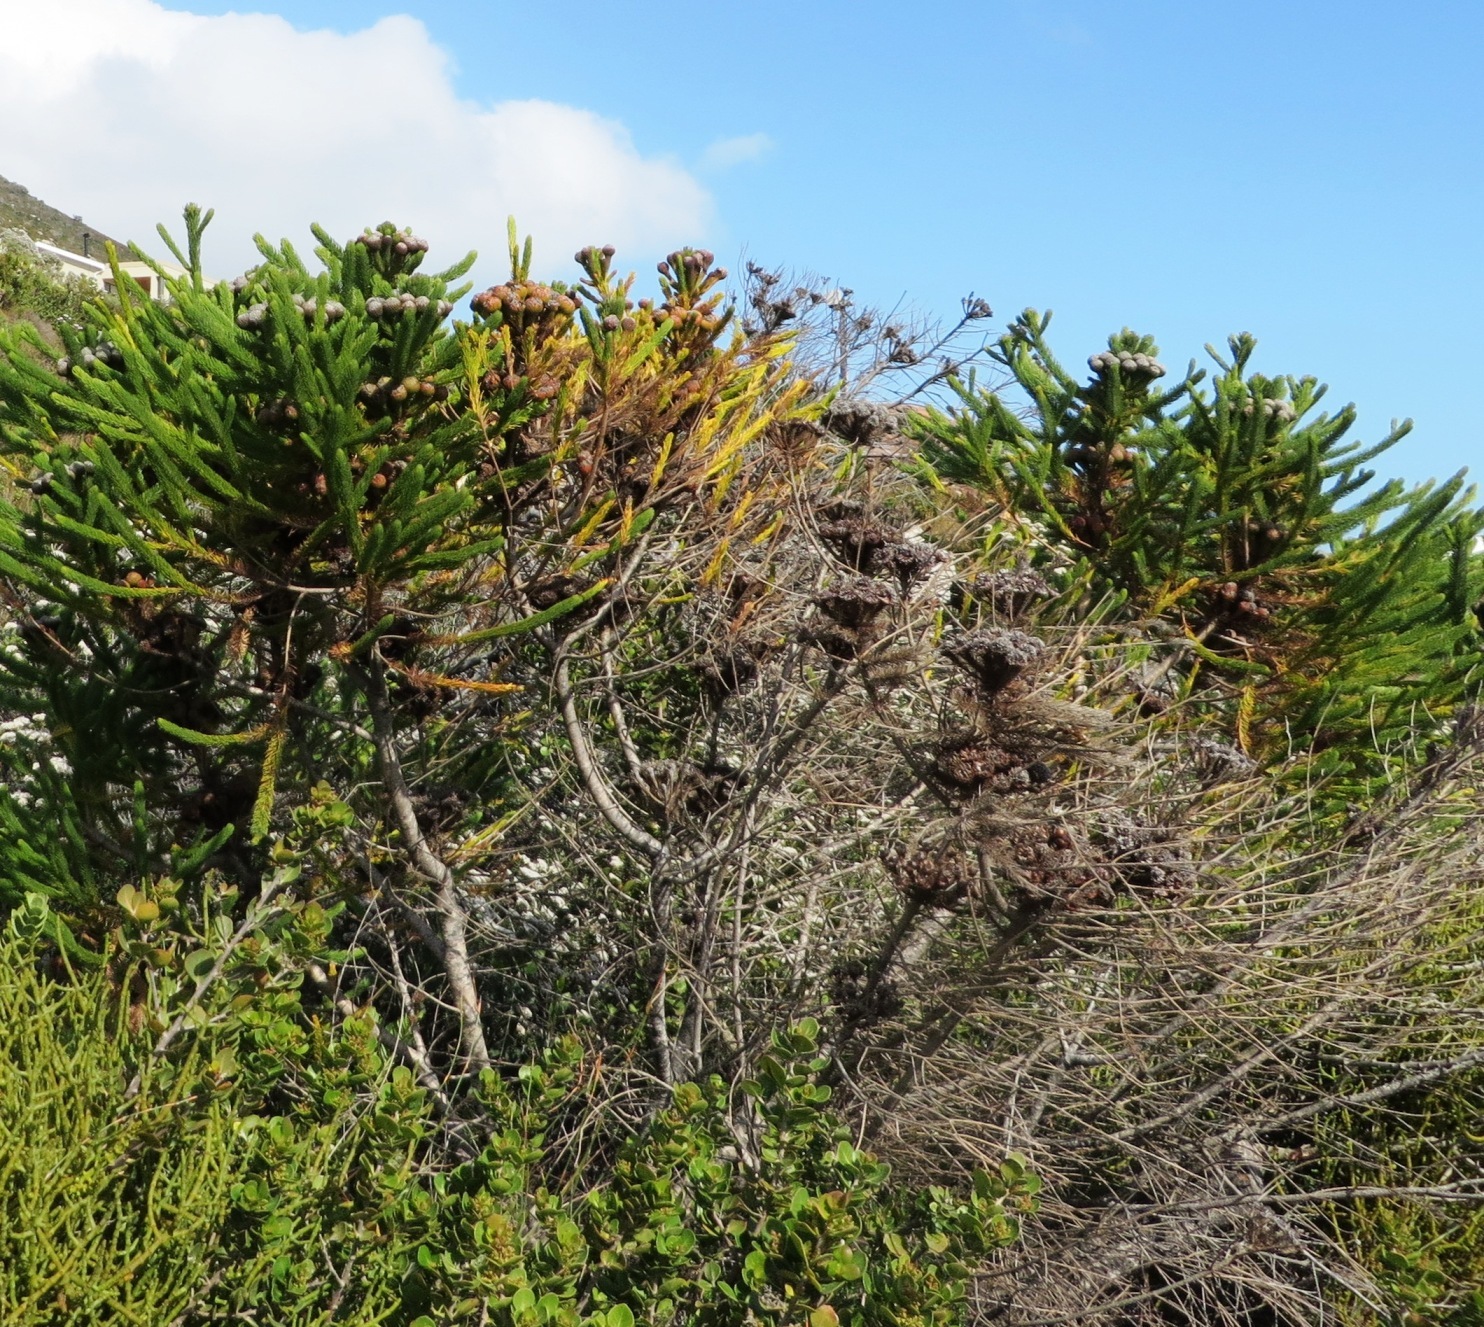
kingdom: Plantae
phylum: Tracheophyta
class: Magnoliopsida
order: Bruniales
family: Bruniaceae
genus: Berzelia
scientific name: Berzelia albiflora
